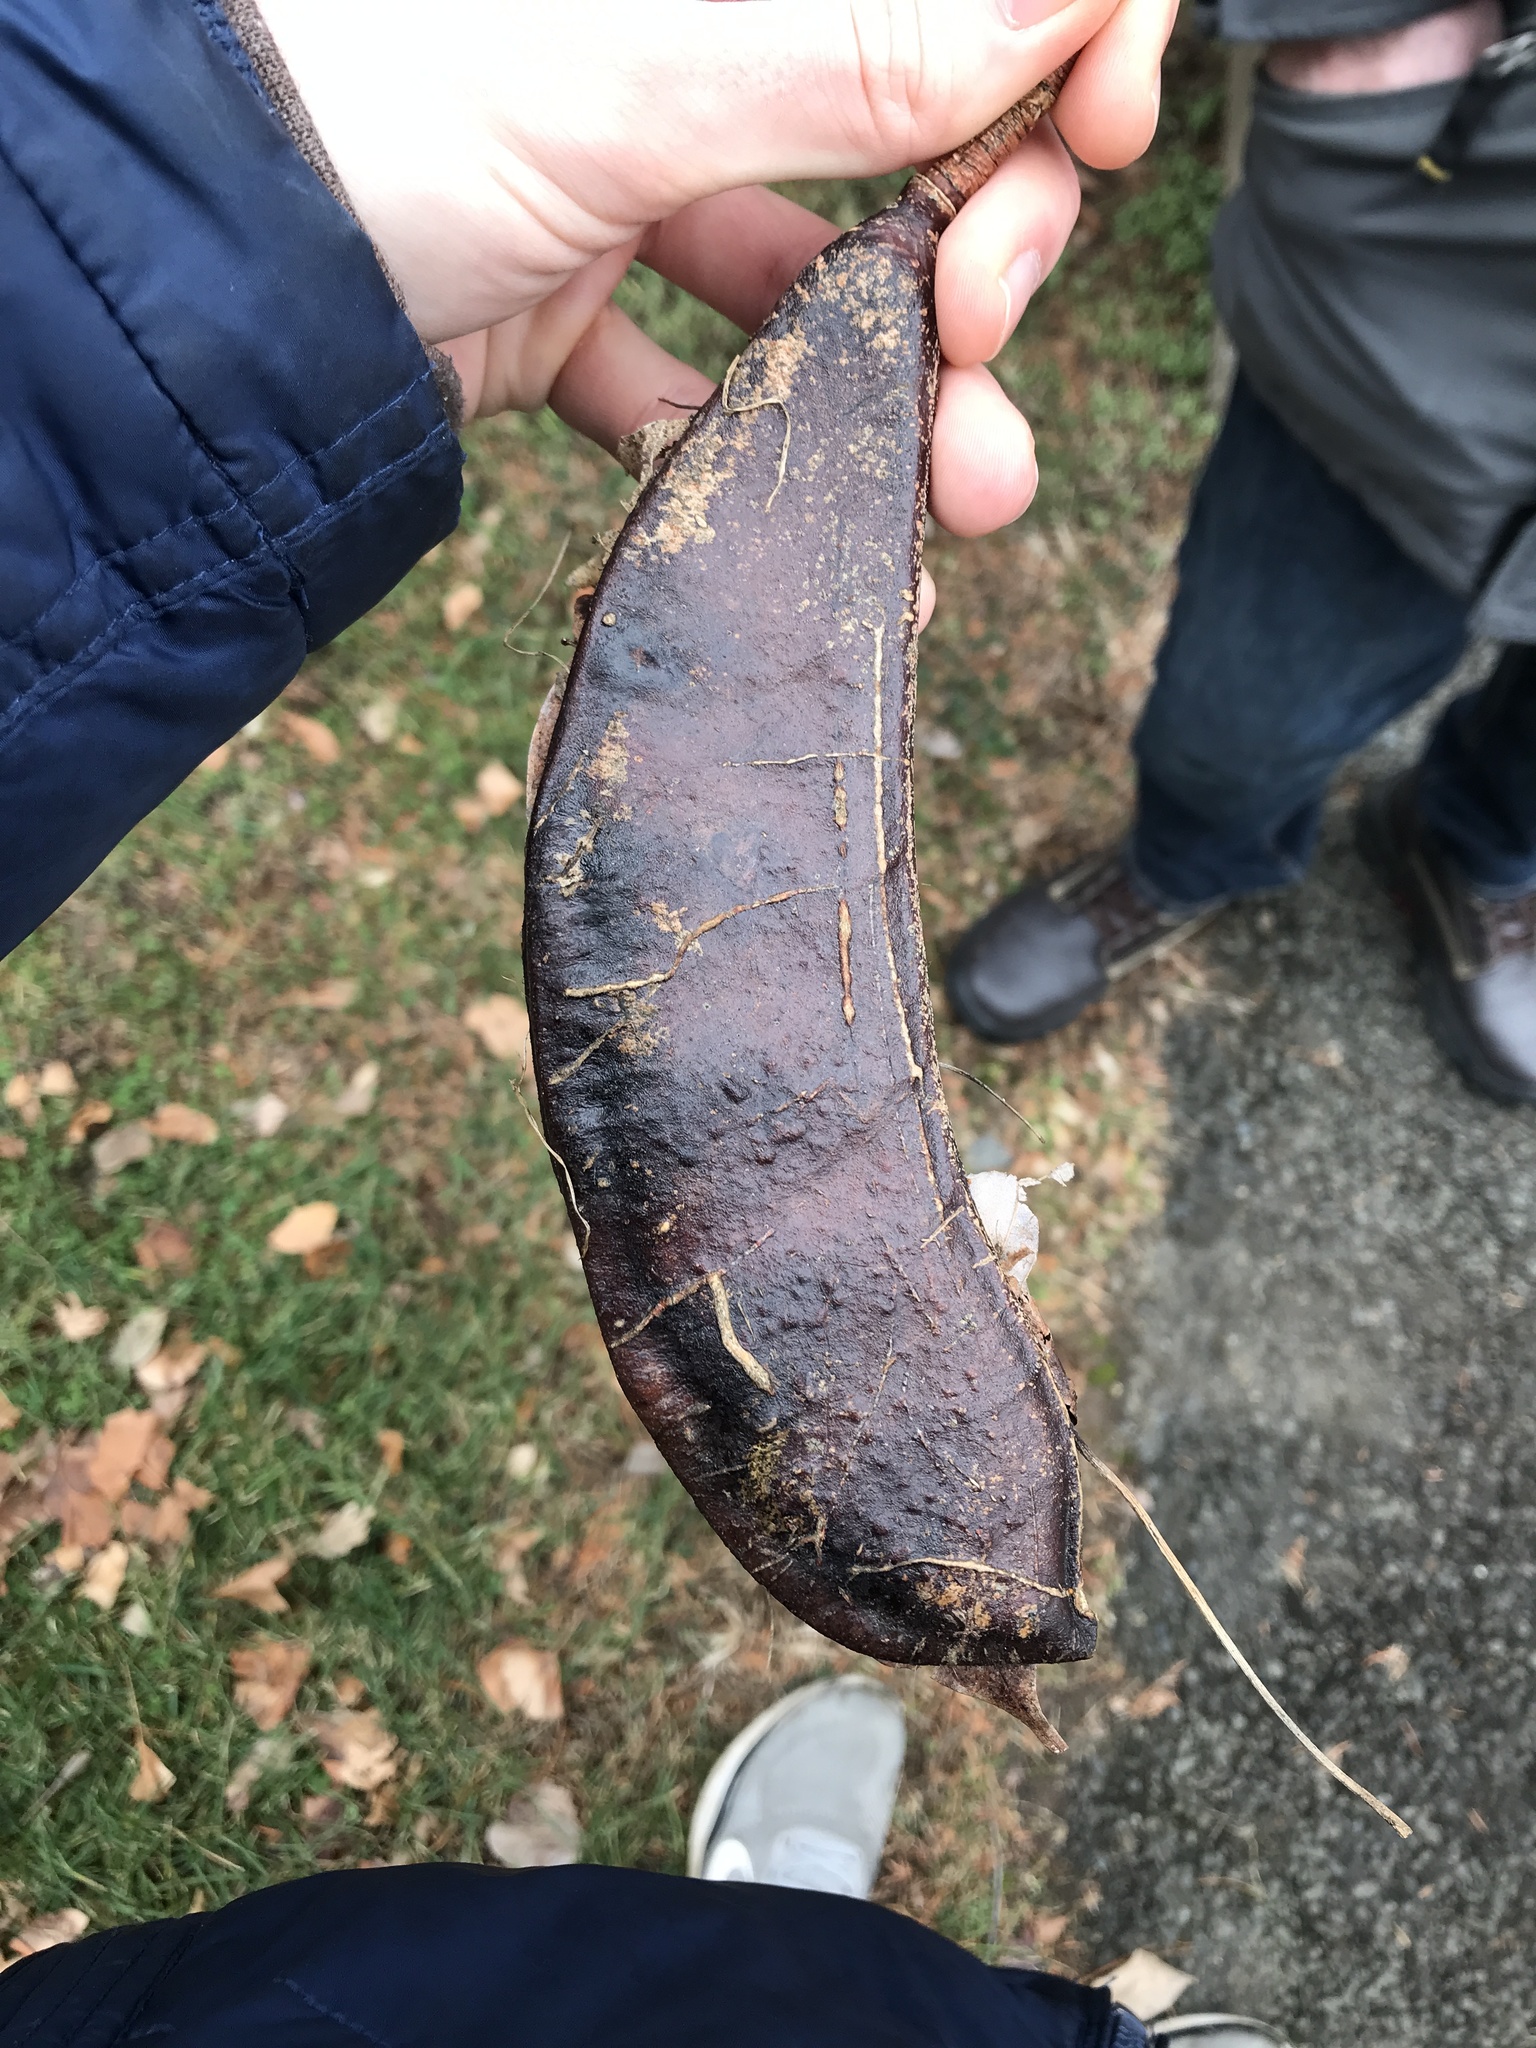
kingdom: Plantae
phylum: Tracheophyta
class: Magnoliopsida
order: Fabales
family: Fabaceae
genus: Gymnocladus
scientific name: Gymnocladus dioicus
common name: Kentucky coffee-tree
